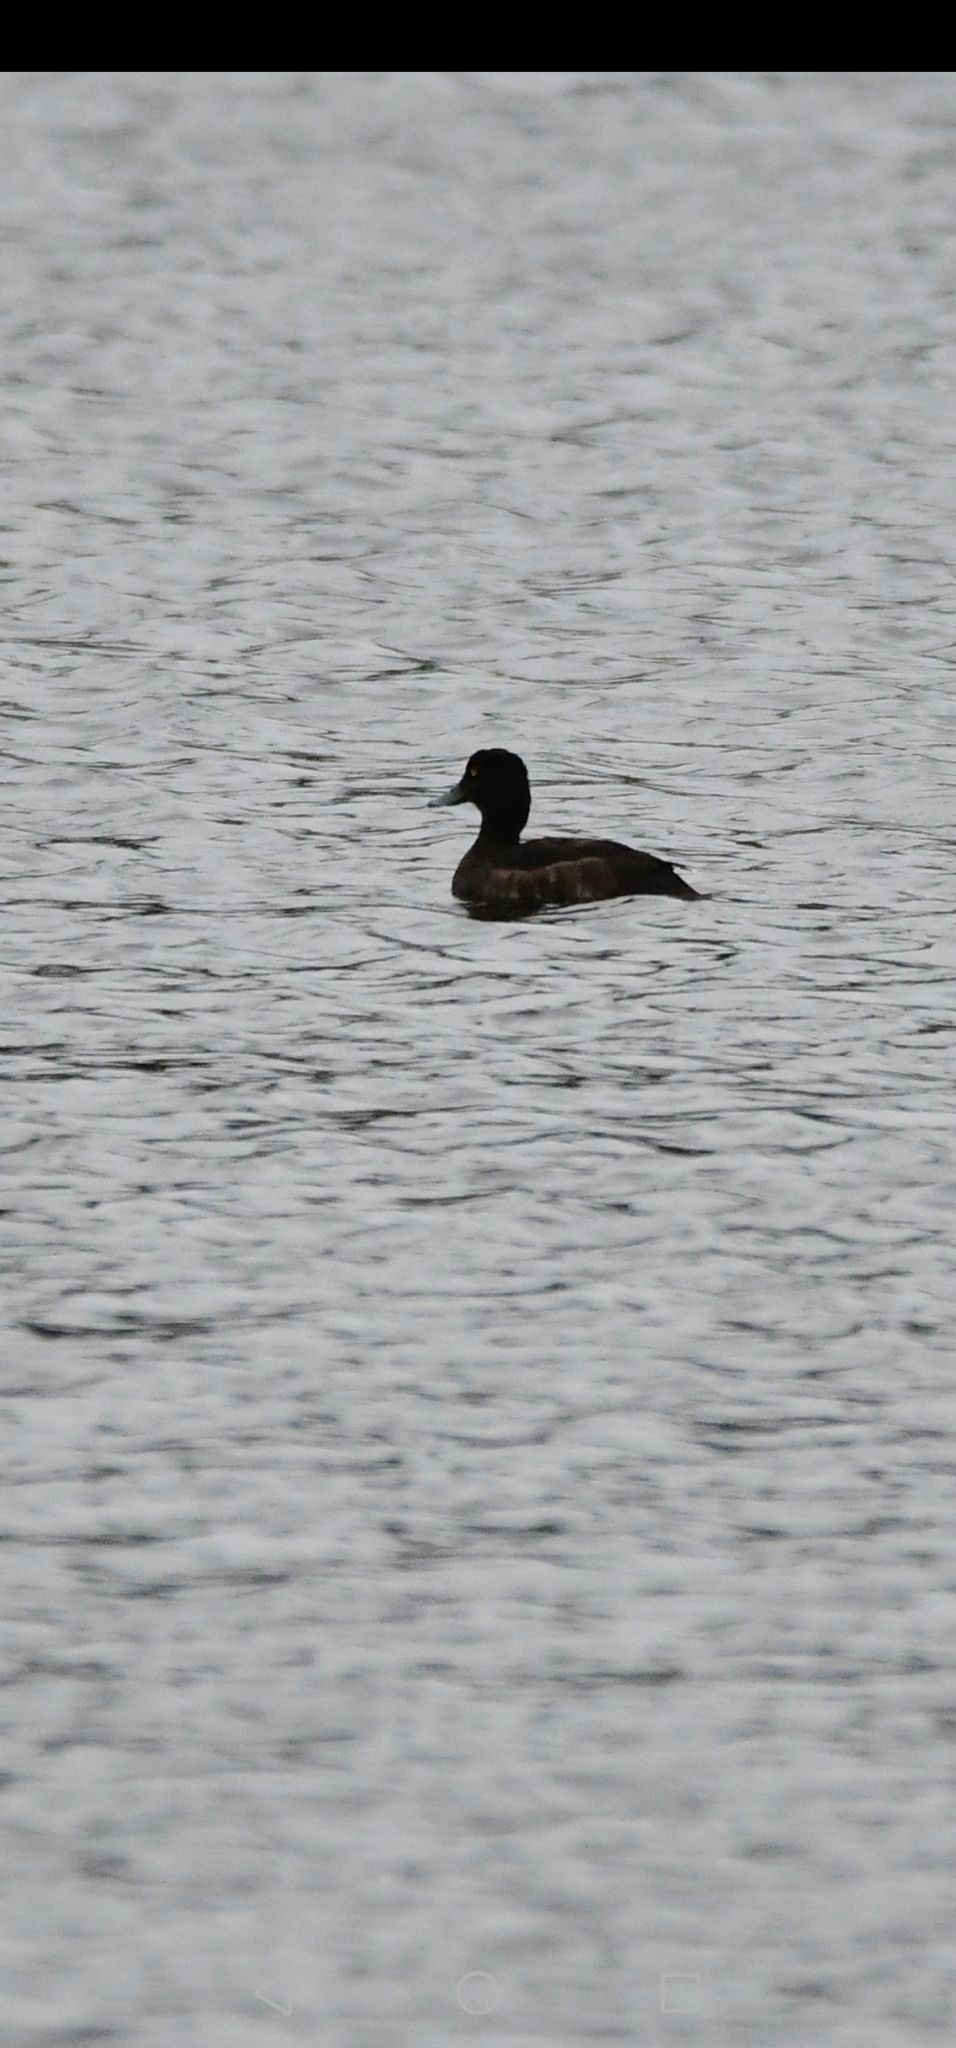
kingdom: Animalia
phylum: Chordata
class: Aves
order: Anseriformes
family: Anatidae
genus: Aythya
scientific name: Aythya fuligula
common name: Tufted duck
